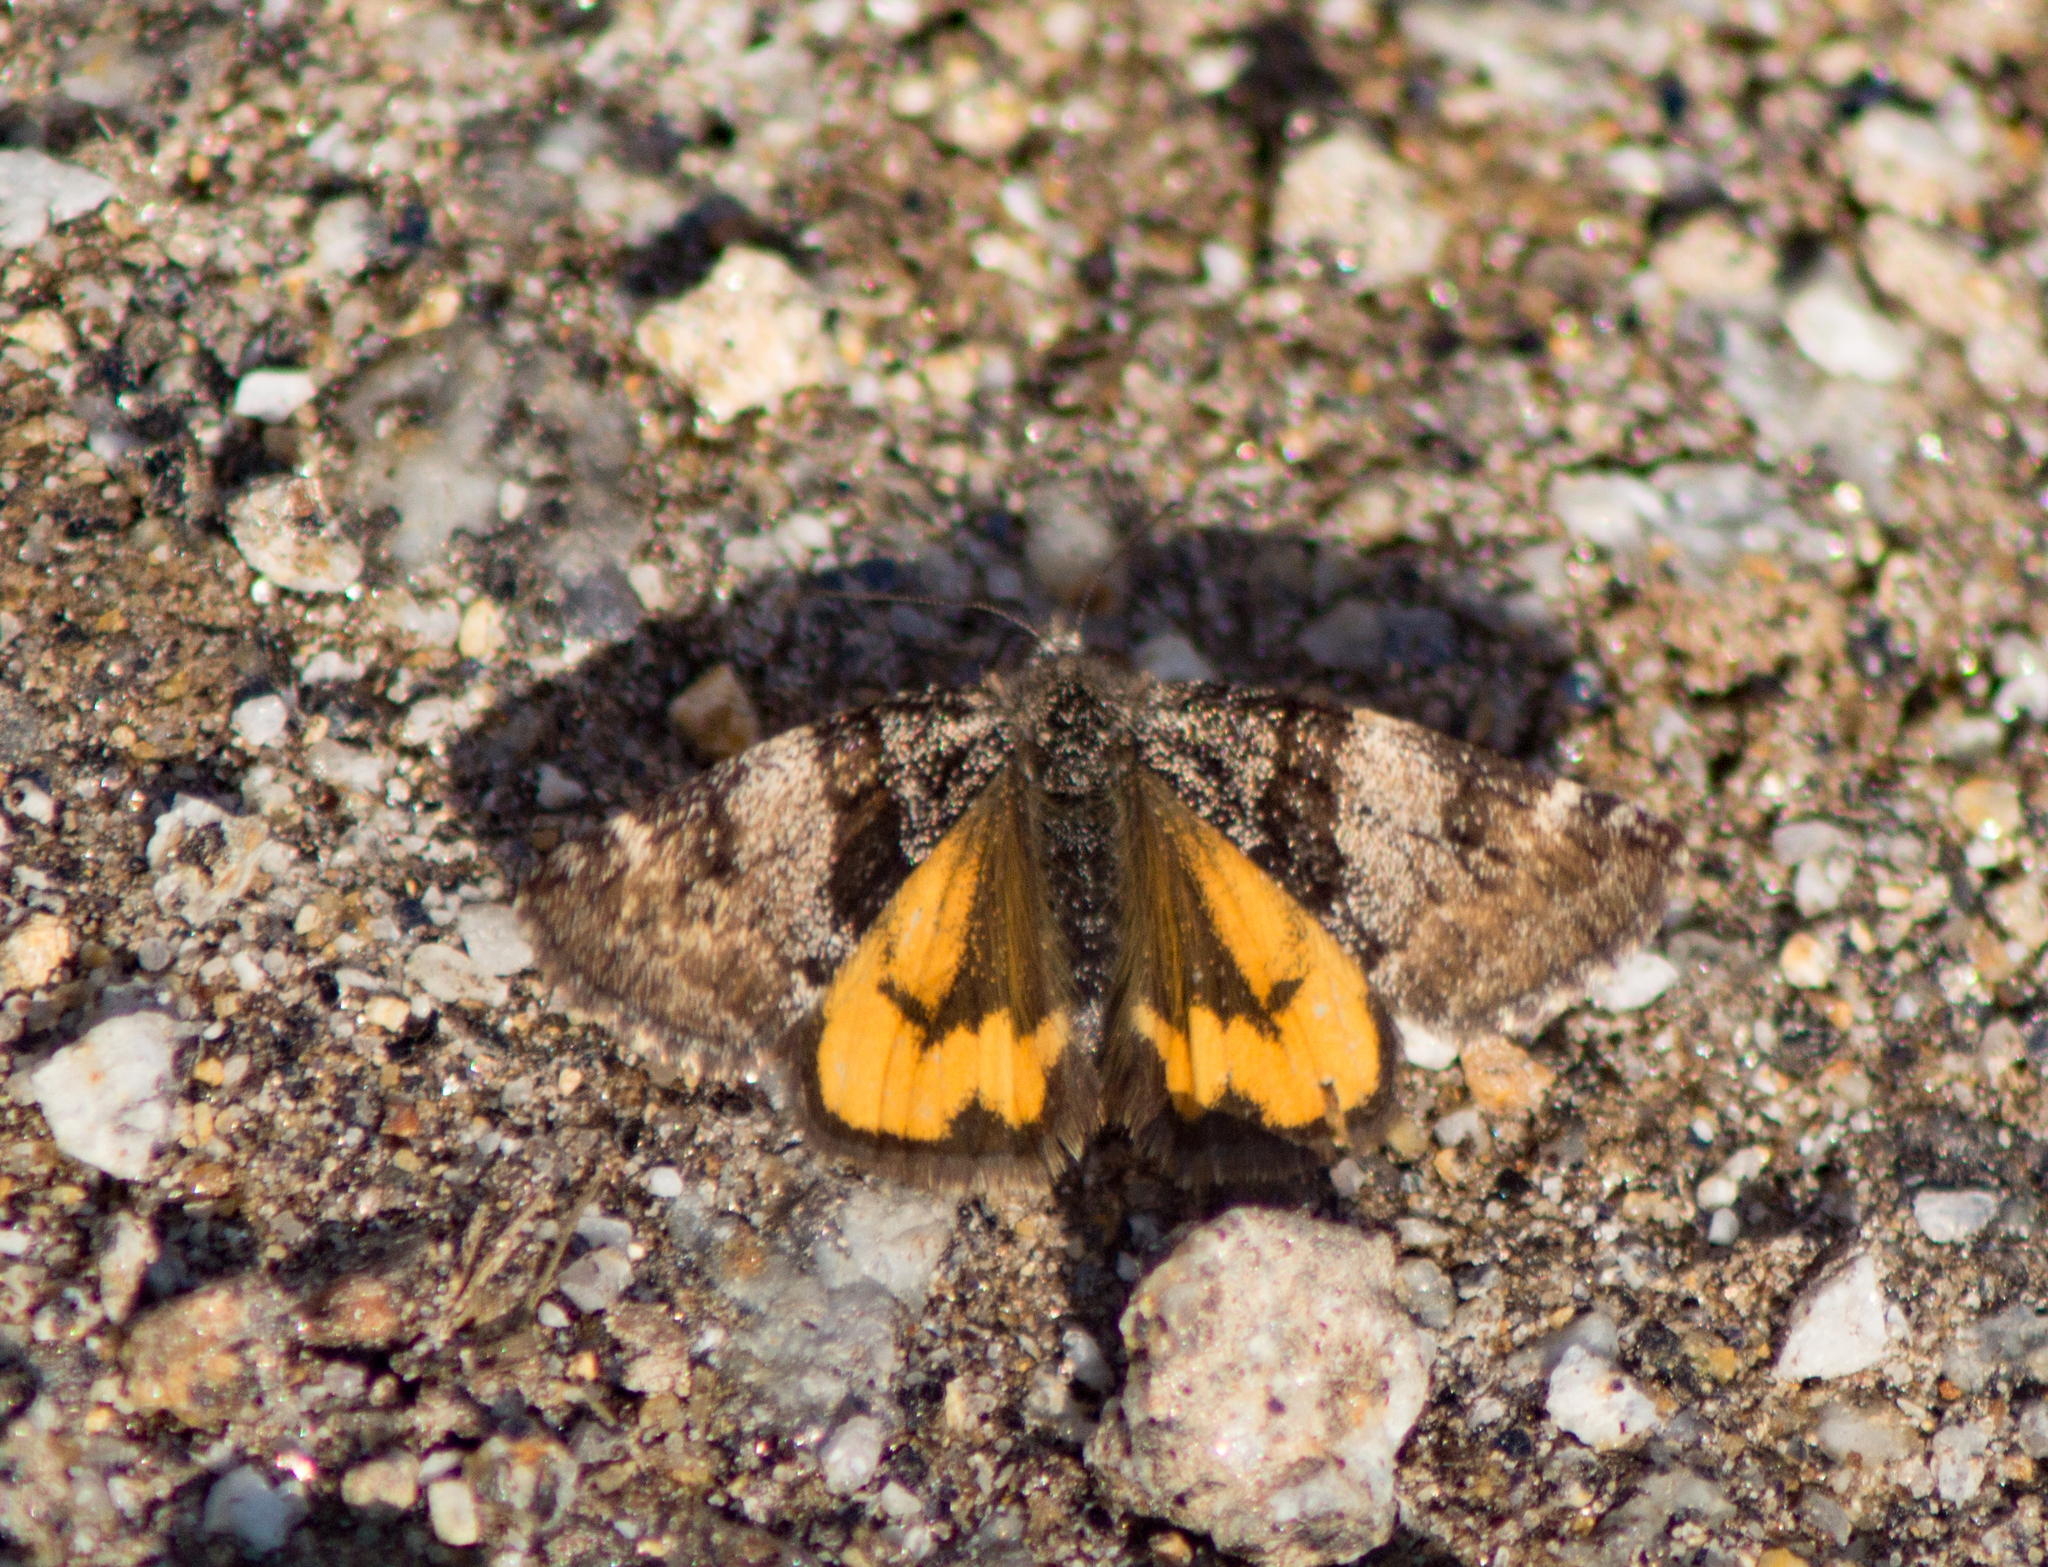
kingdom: Animalia
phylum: Arthropoda
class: Insecta
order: Lepidoptera
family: Geometridae
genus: Archiearis
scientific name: Archiearis parthenias
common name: Orange underwing
